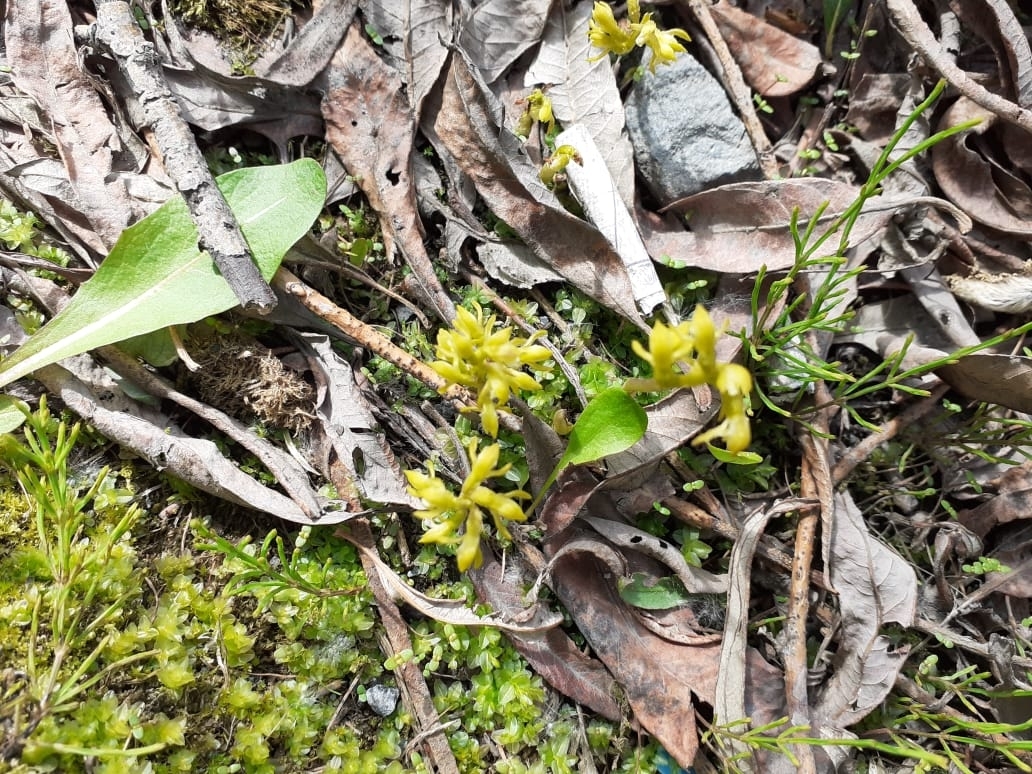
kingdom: Plantae
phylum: Tracheophyta
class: Liliopsida
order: Asparagales
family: Orchidaceae
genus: Corallorhiza
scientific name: Corallorhiza trifida
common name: Yellow coralroot
